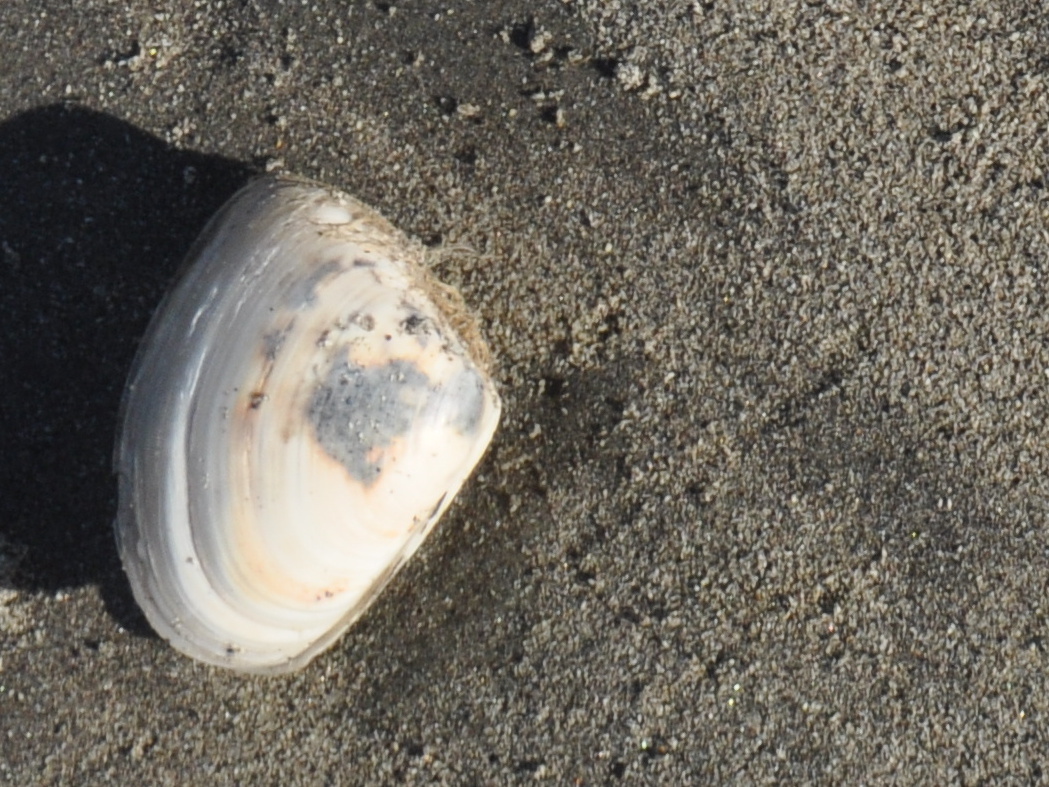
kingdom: Animalia
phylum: Mollusca
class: Bivalvia
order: Venerida
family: Mesodesmatidae
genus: Paphies
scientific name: Paphies donacina
